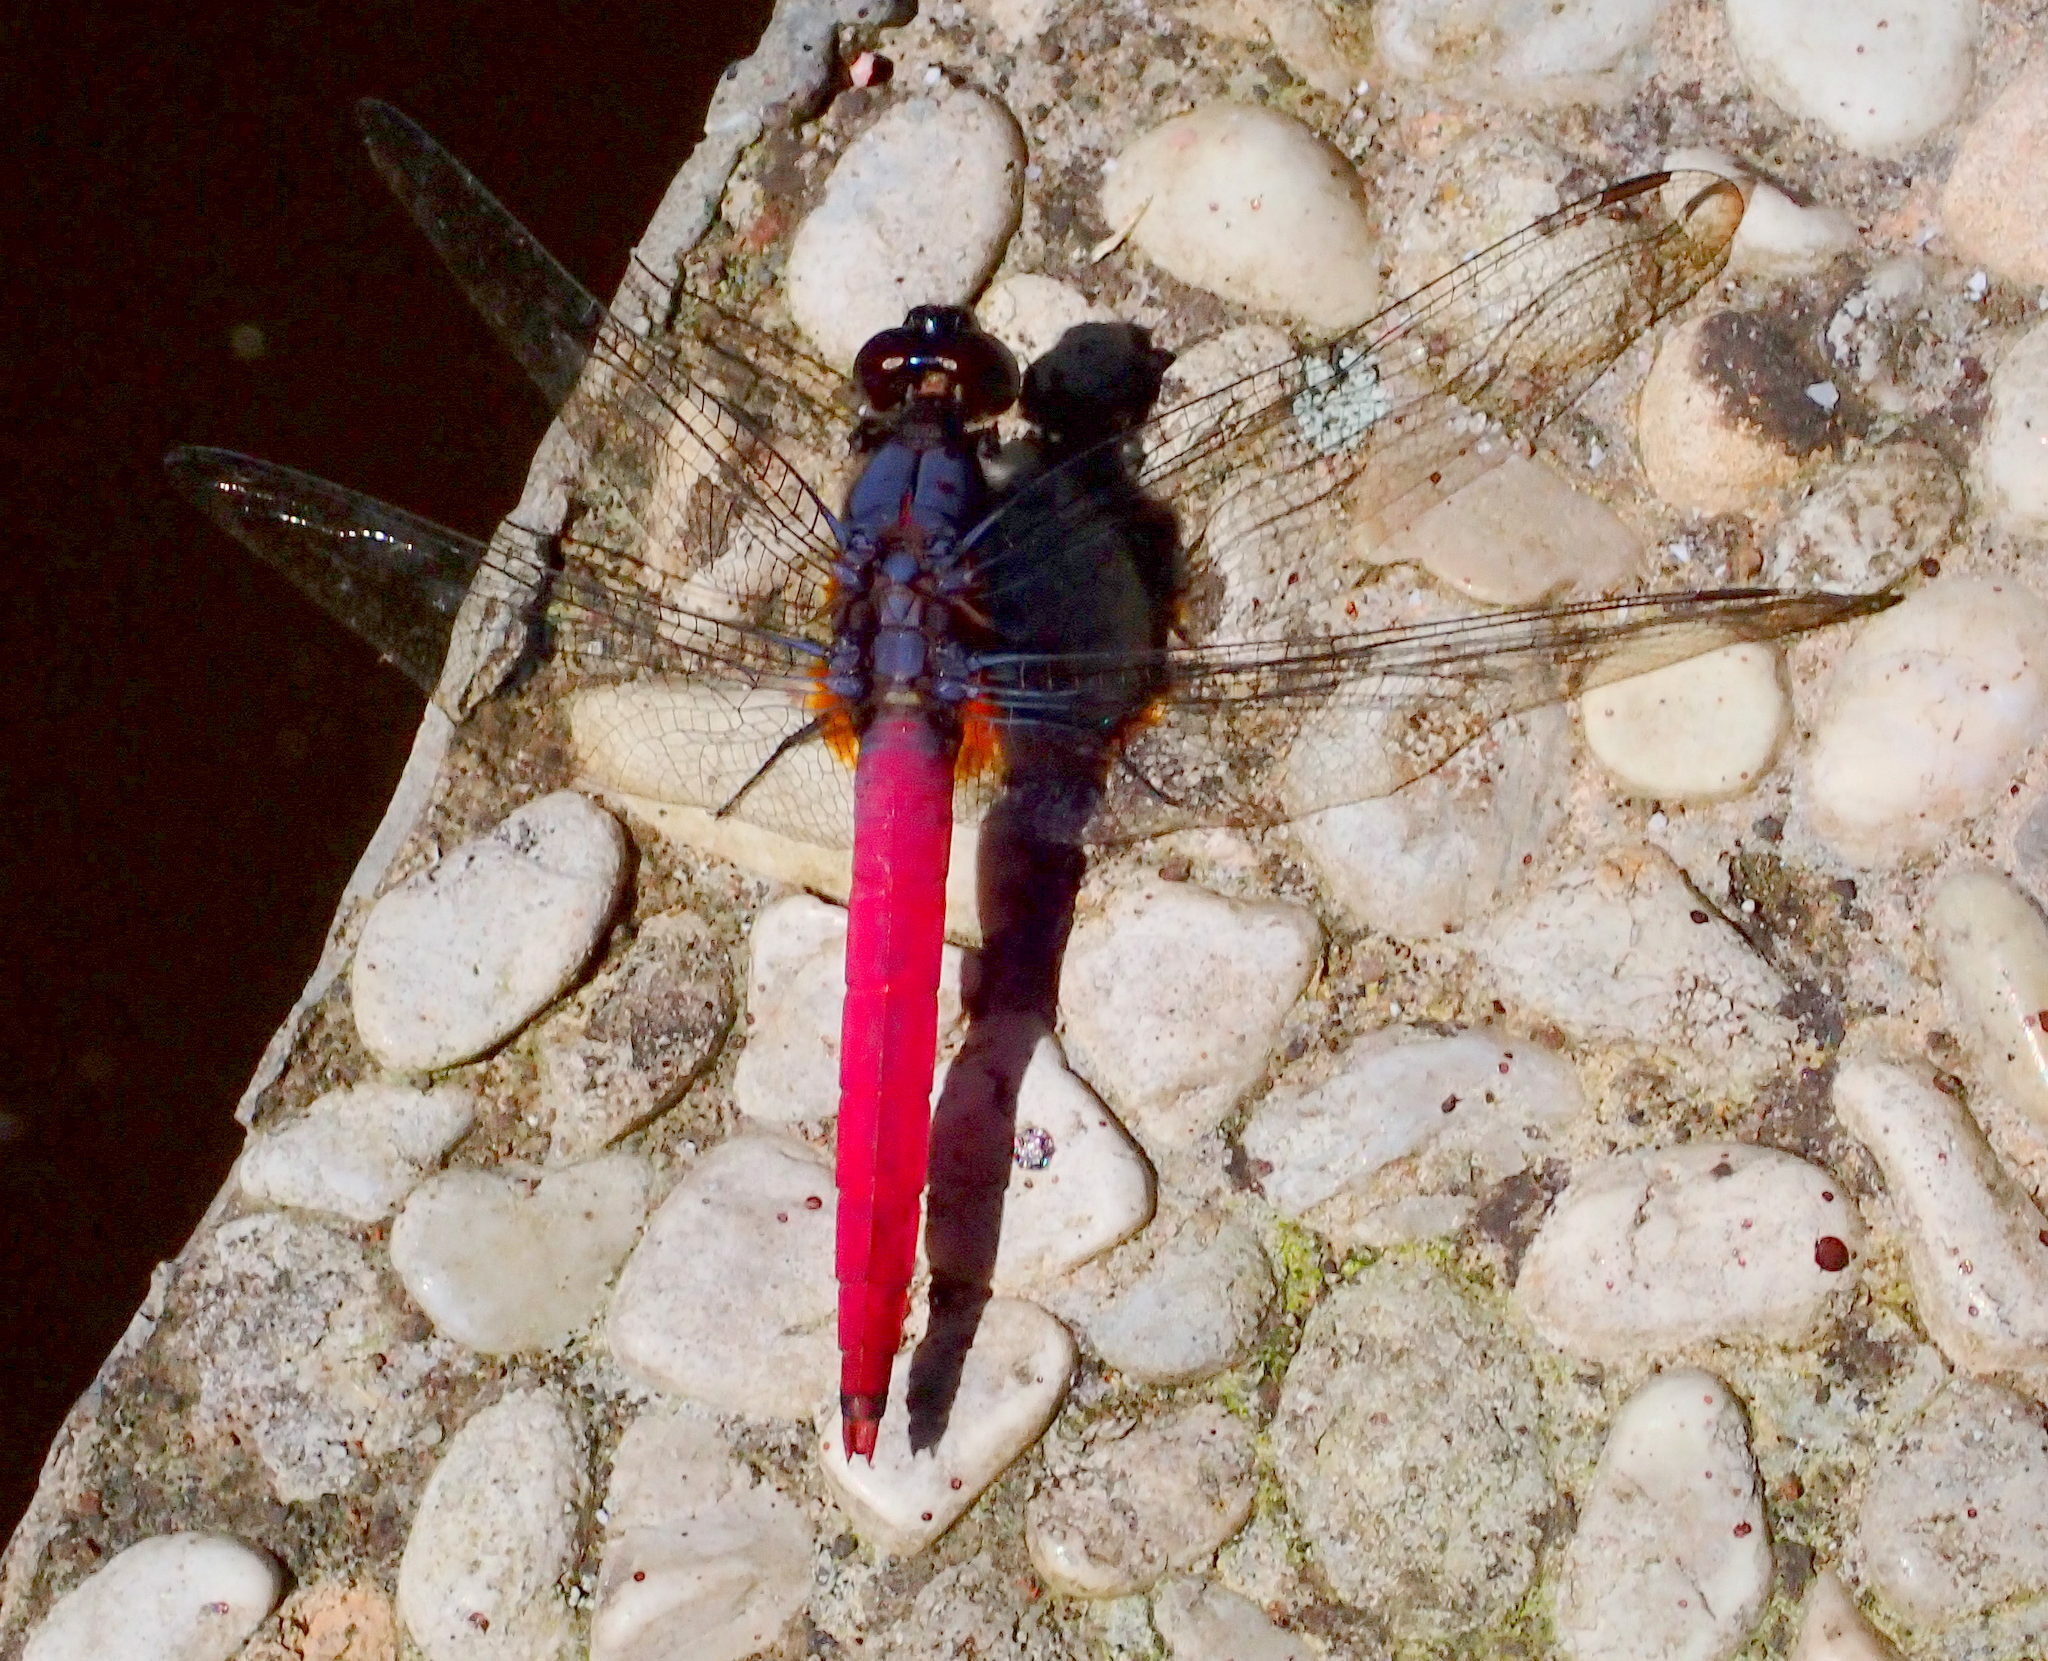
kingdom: Animalia
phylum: Arthropoda
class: Insecta
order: Odonata
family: Libellulidae
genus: Orthetrum
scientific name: Orthetrum pruinosum
